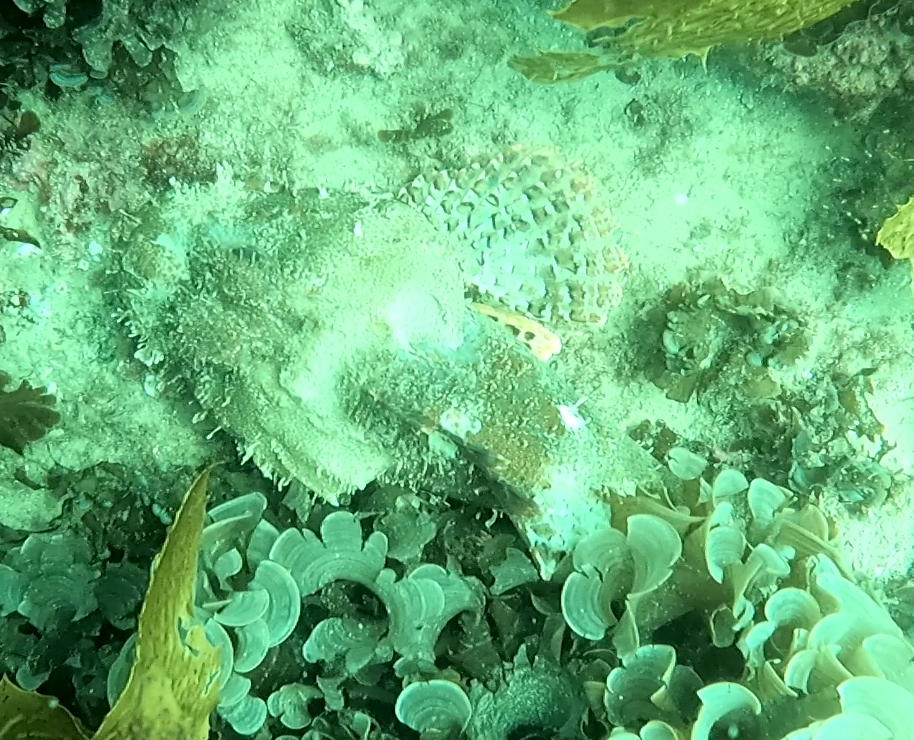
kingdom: Animalia
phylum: Chordata
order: Scorpaeniformes
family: Scorpaenidae
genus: Scorpaena
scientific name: Scorpaena jacksoniensis
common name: Eastern red scorpionfish
